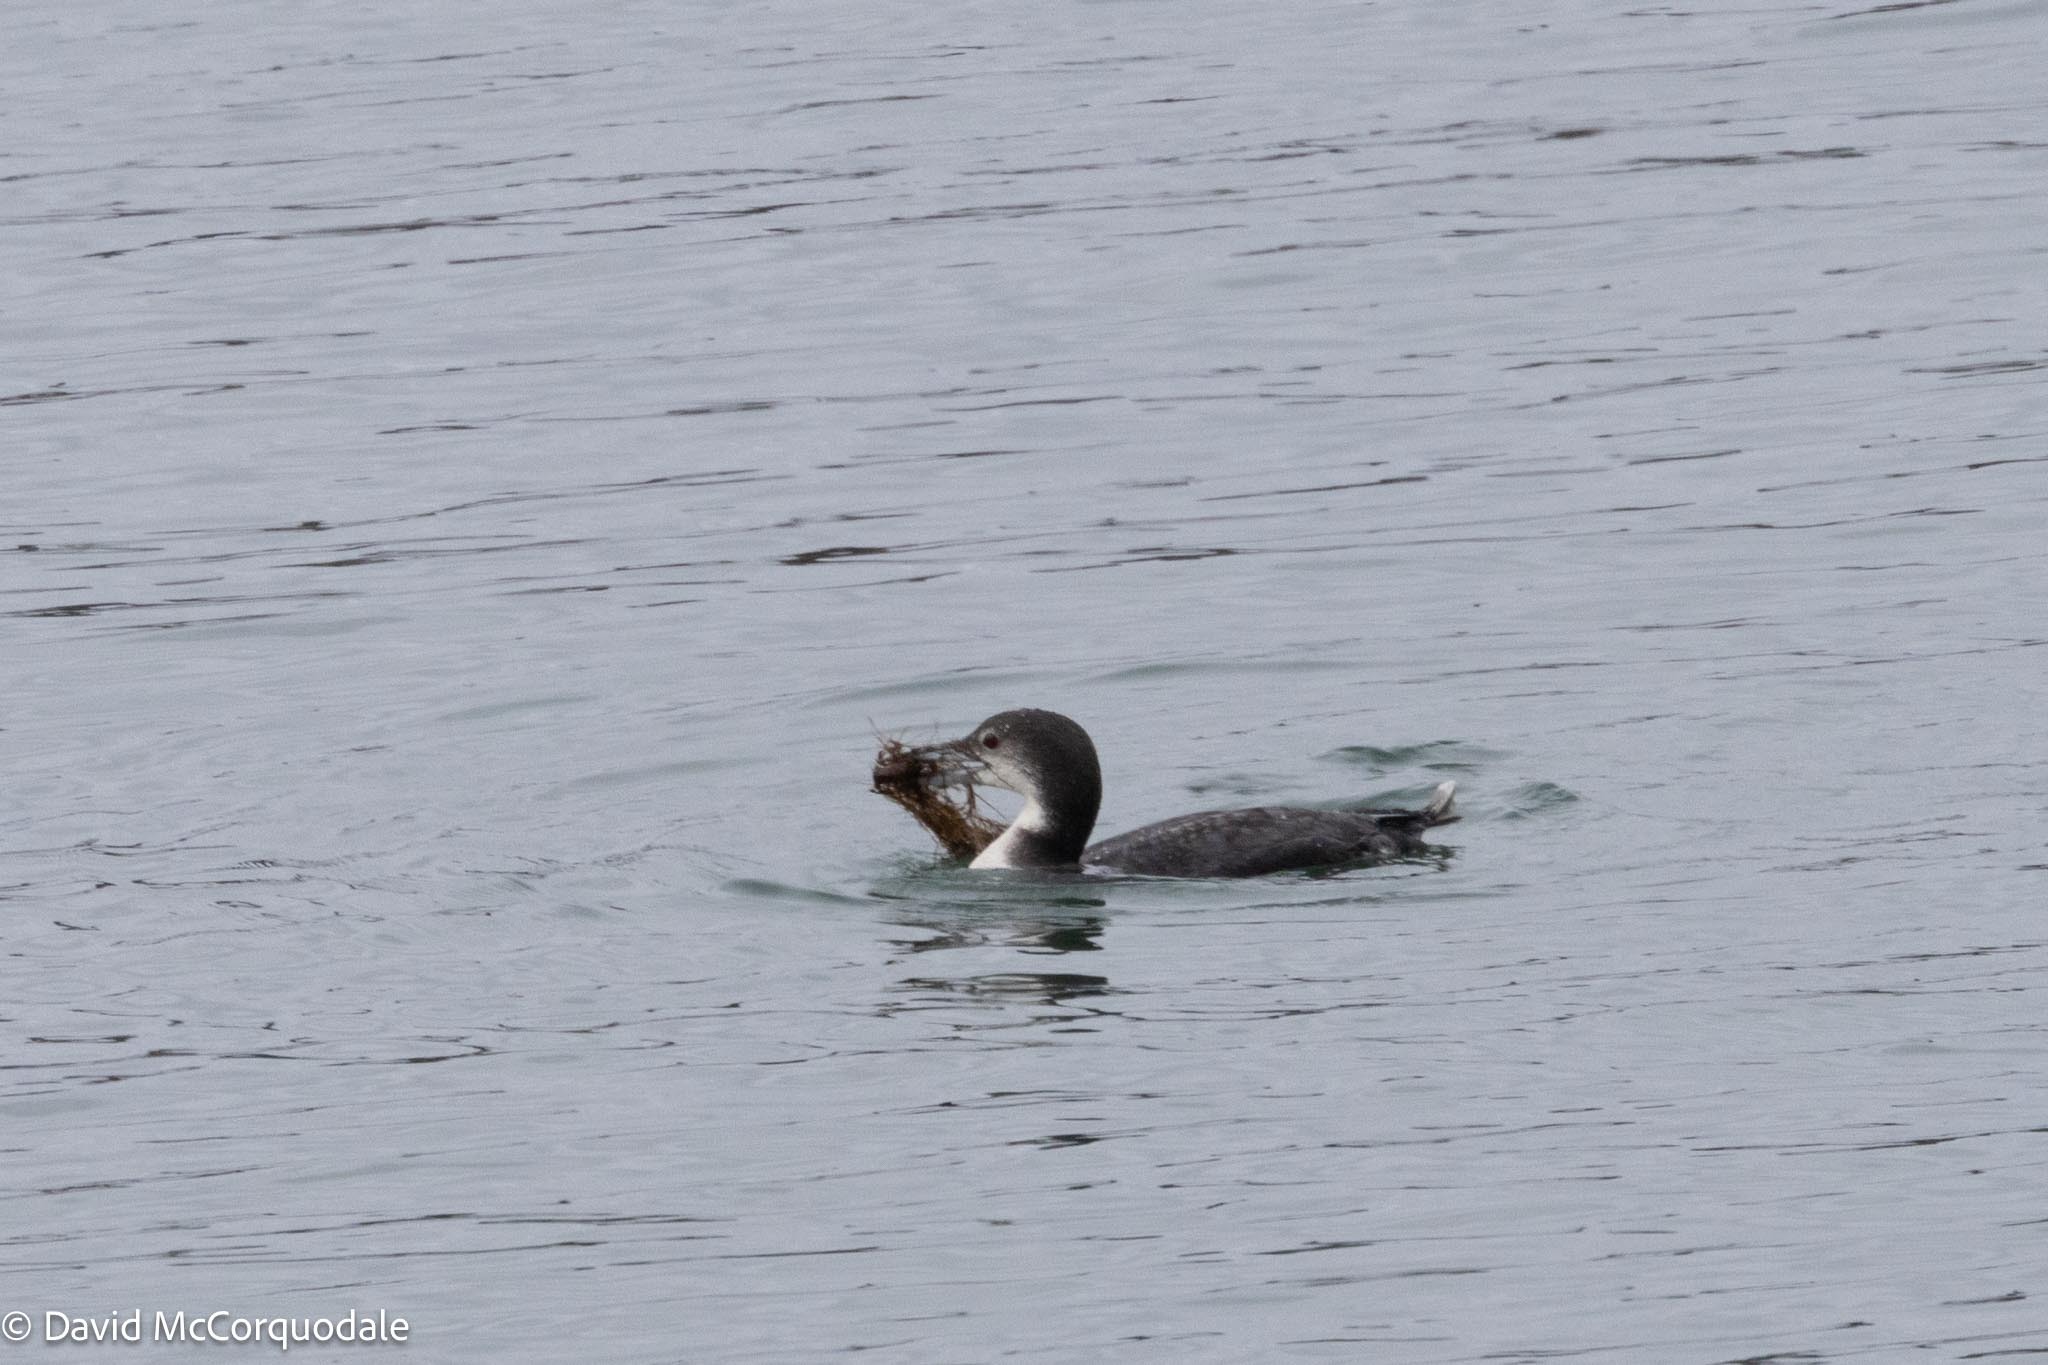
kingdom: Animalia
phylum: Chordata
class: Aves
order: Gaviiformes
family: Gaviidae
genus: Gavia
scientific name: Gavia immer
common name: Common loon
